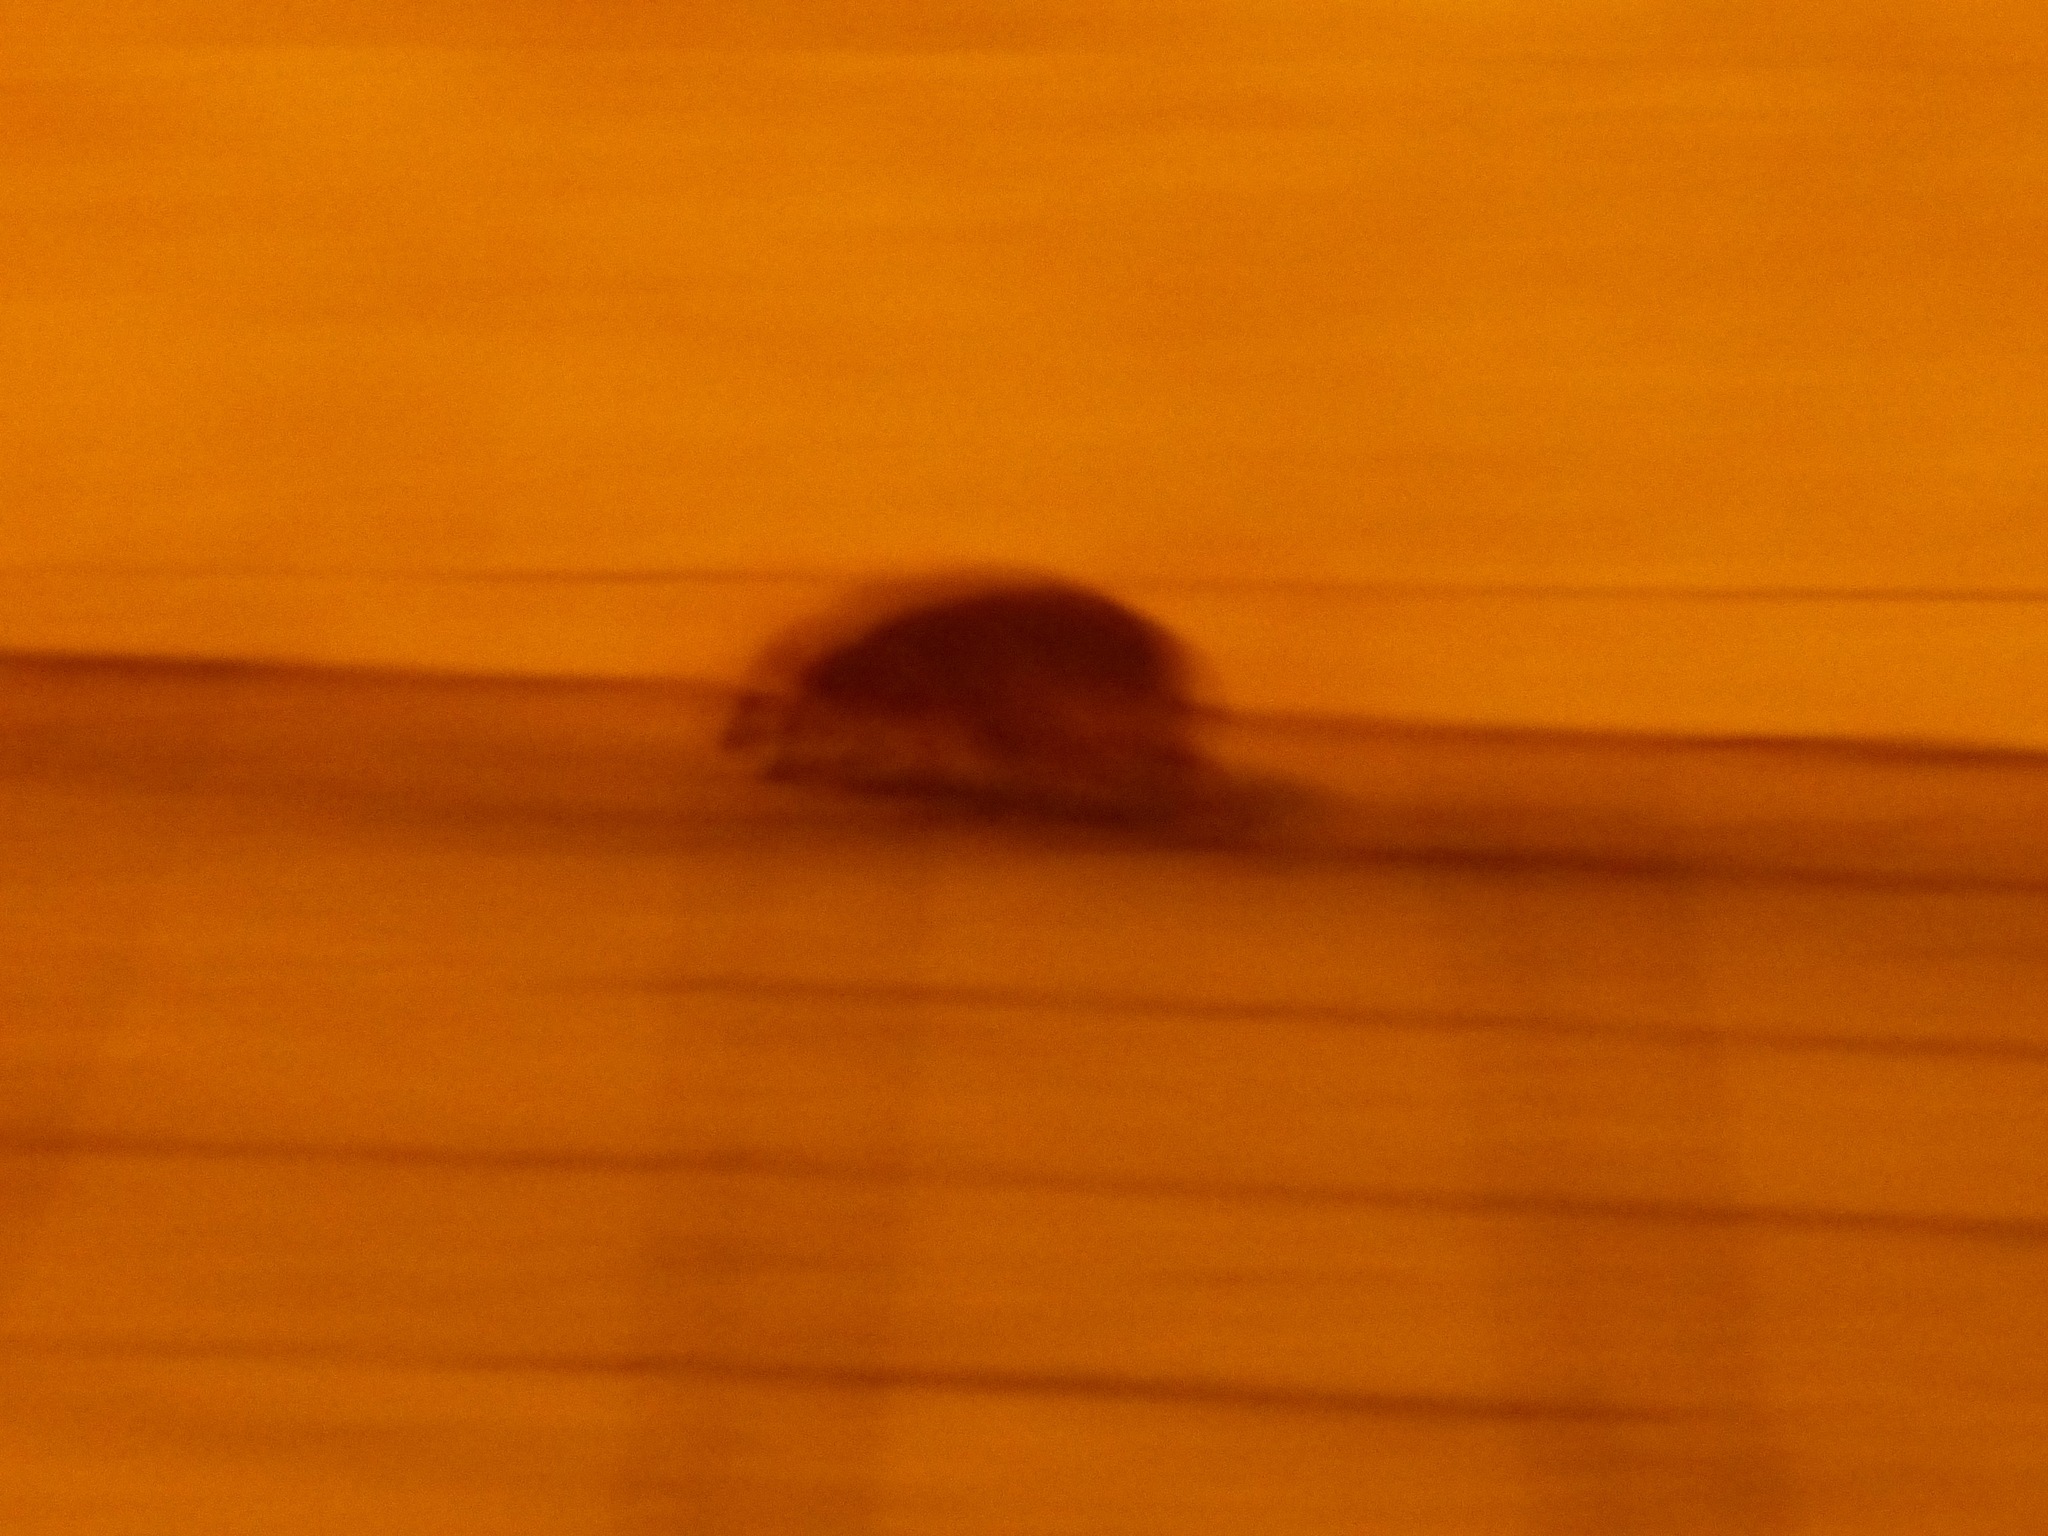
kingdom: Animalia
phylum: Chordata
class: Mammalia
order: Erinaceomorpha
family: Erinaceidae
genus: Erinaceus
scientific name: Erinaceus europaeus
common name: West european hedgehog
